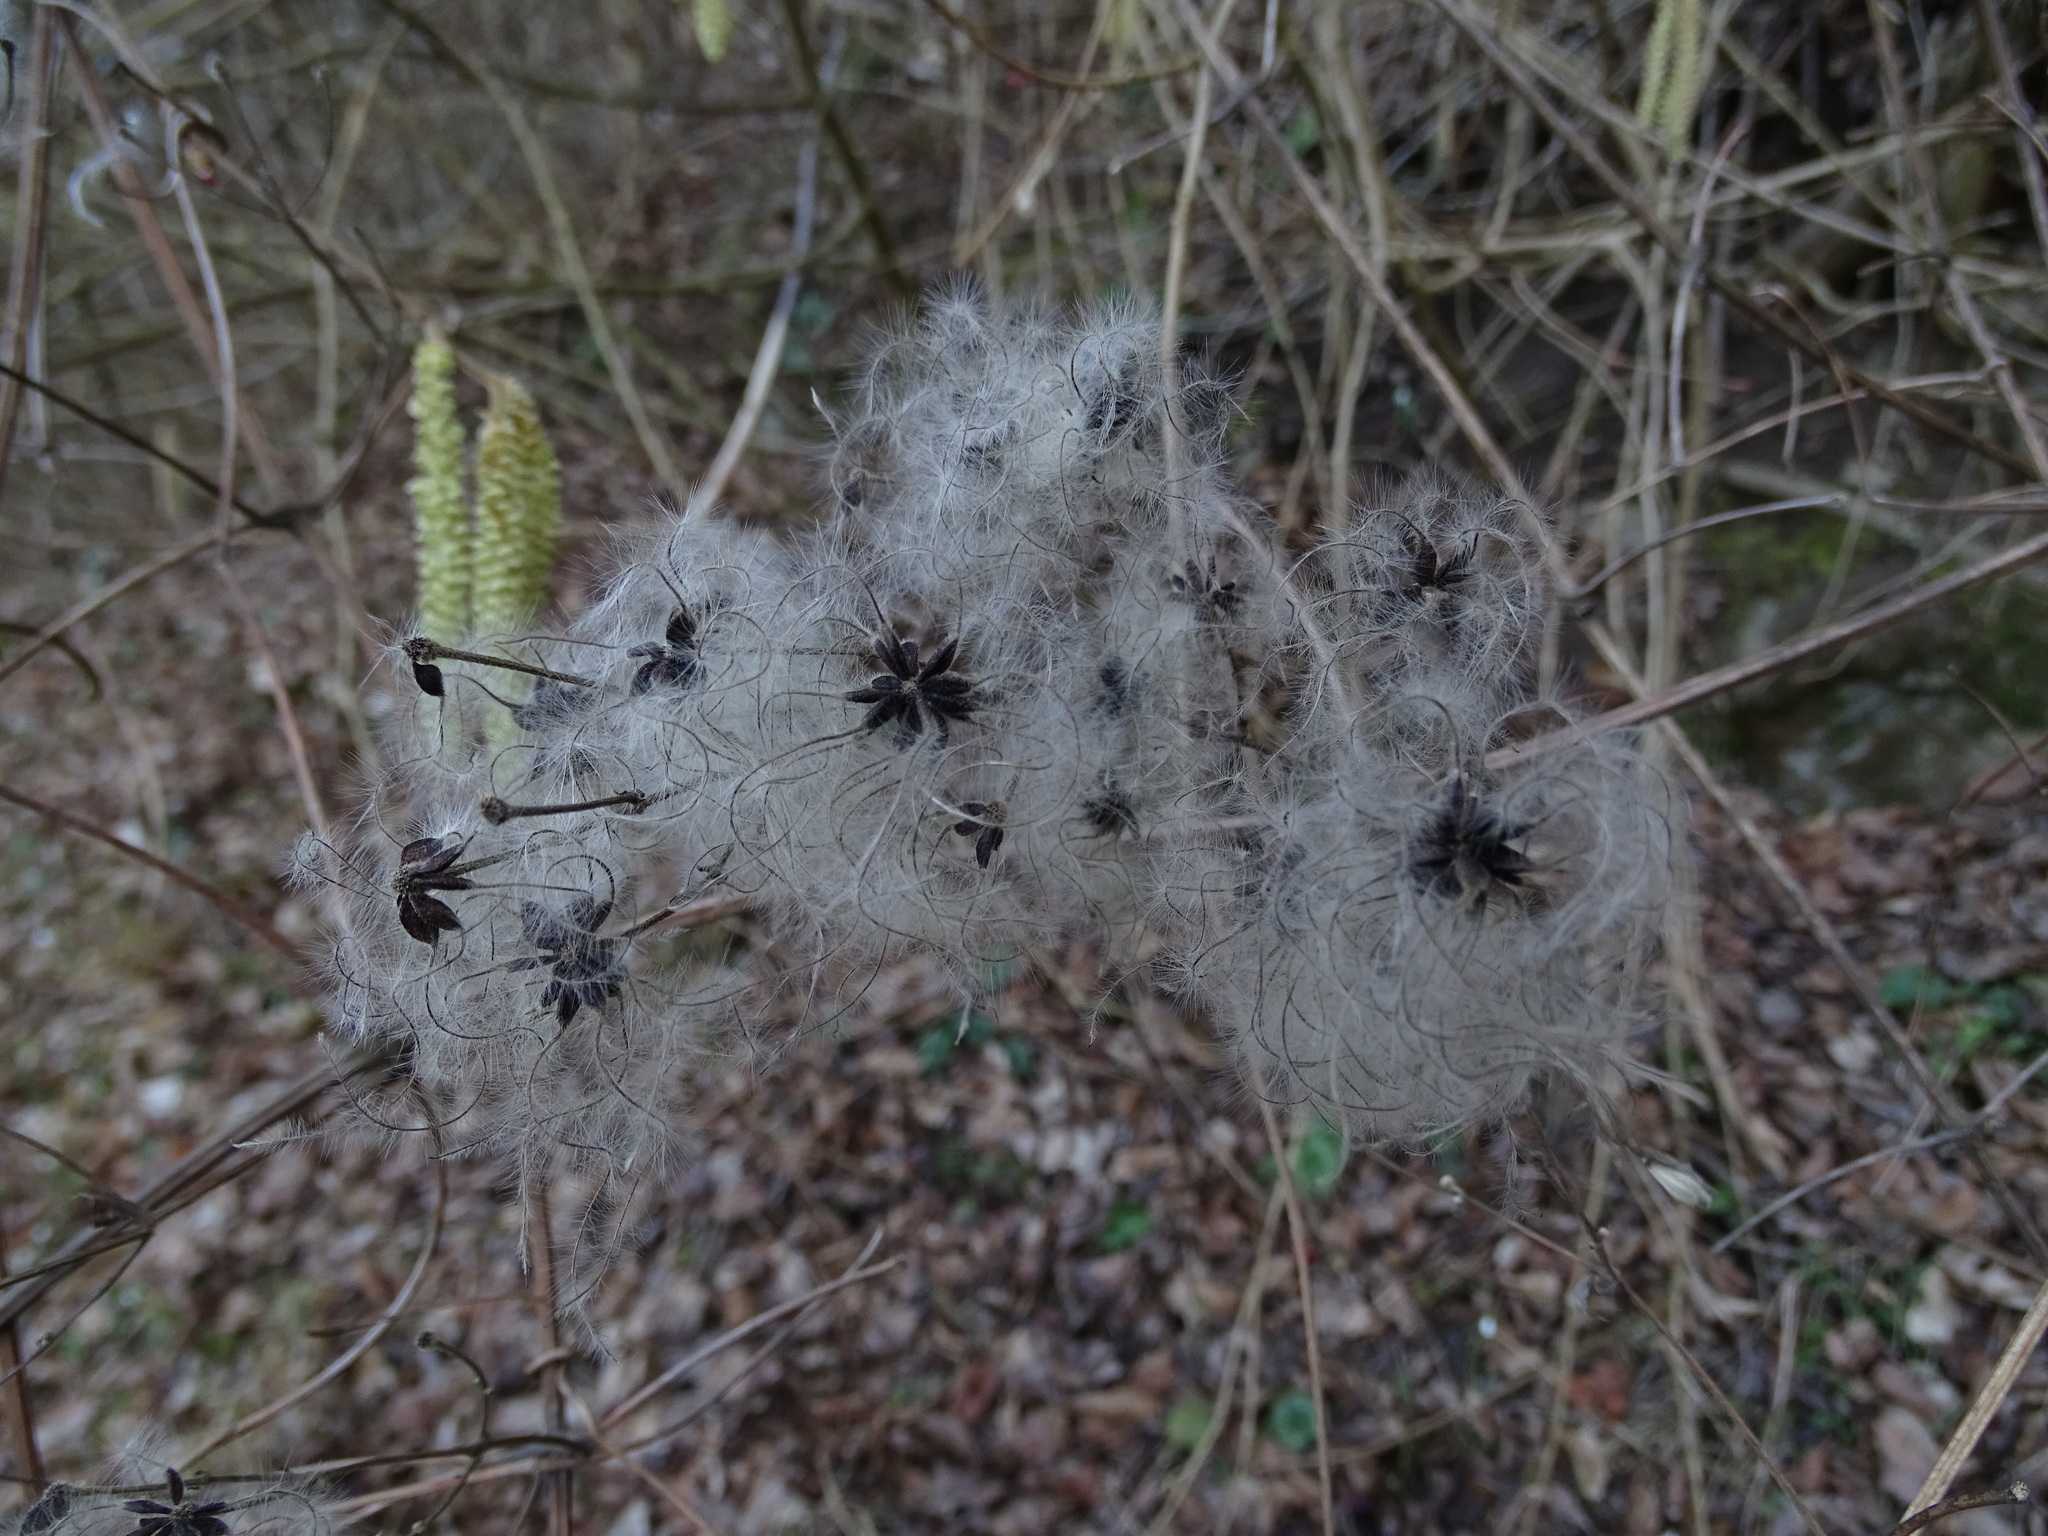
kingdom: Plantae
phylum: Tracheophyta
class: Magnoliopsida
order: Ranunculales
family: Ranunculaceae
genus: Clematis
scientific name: Clematis vitalba
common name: Evergreen clematis
